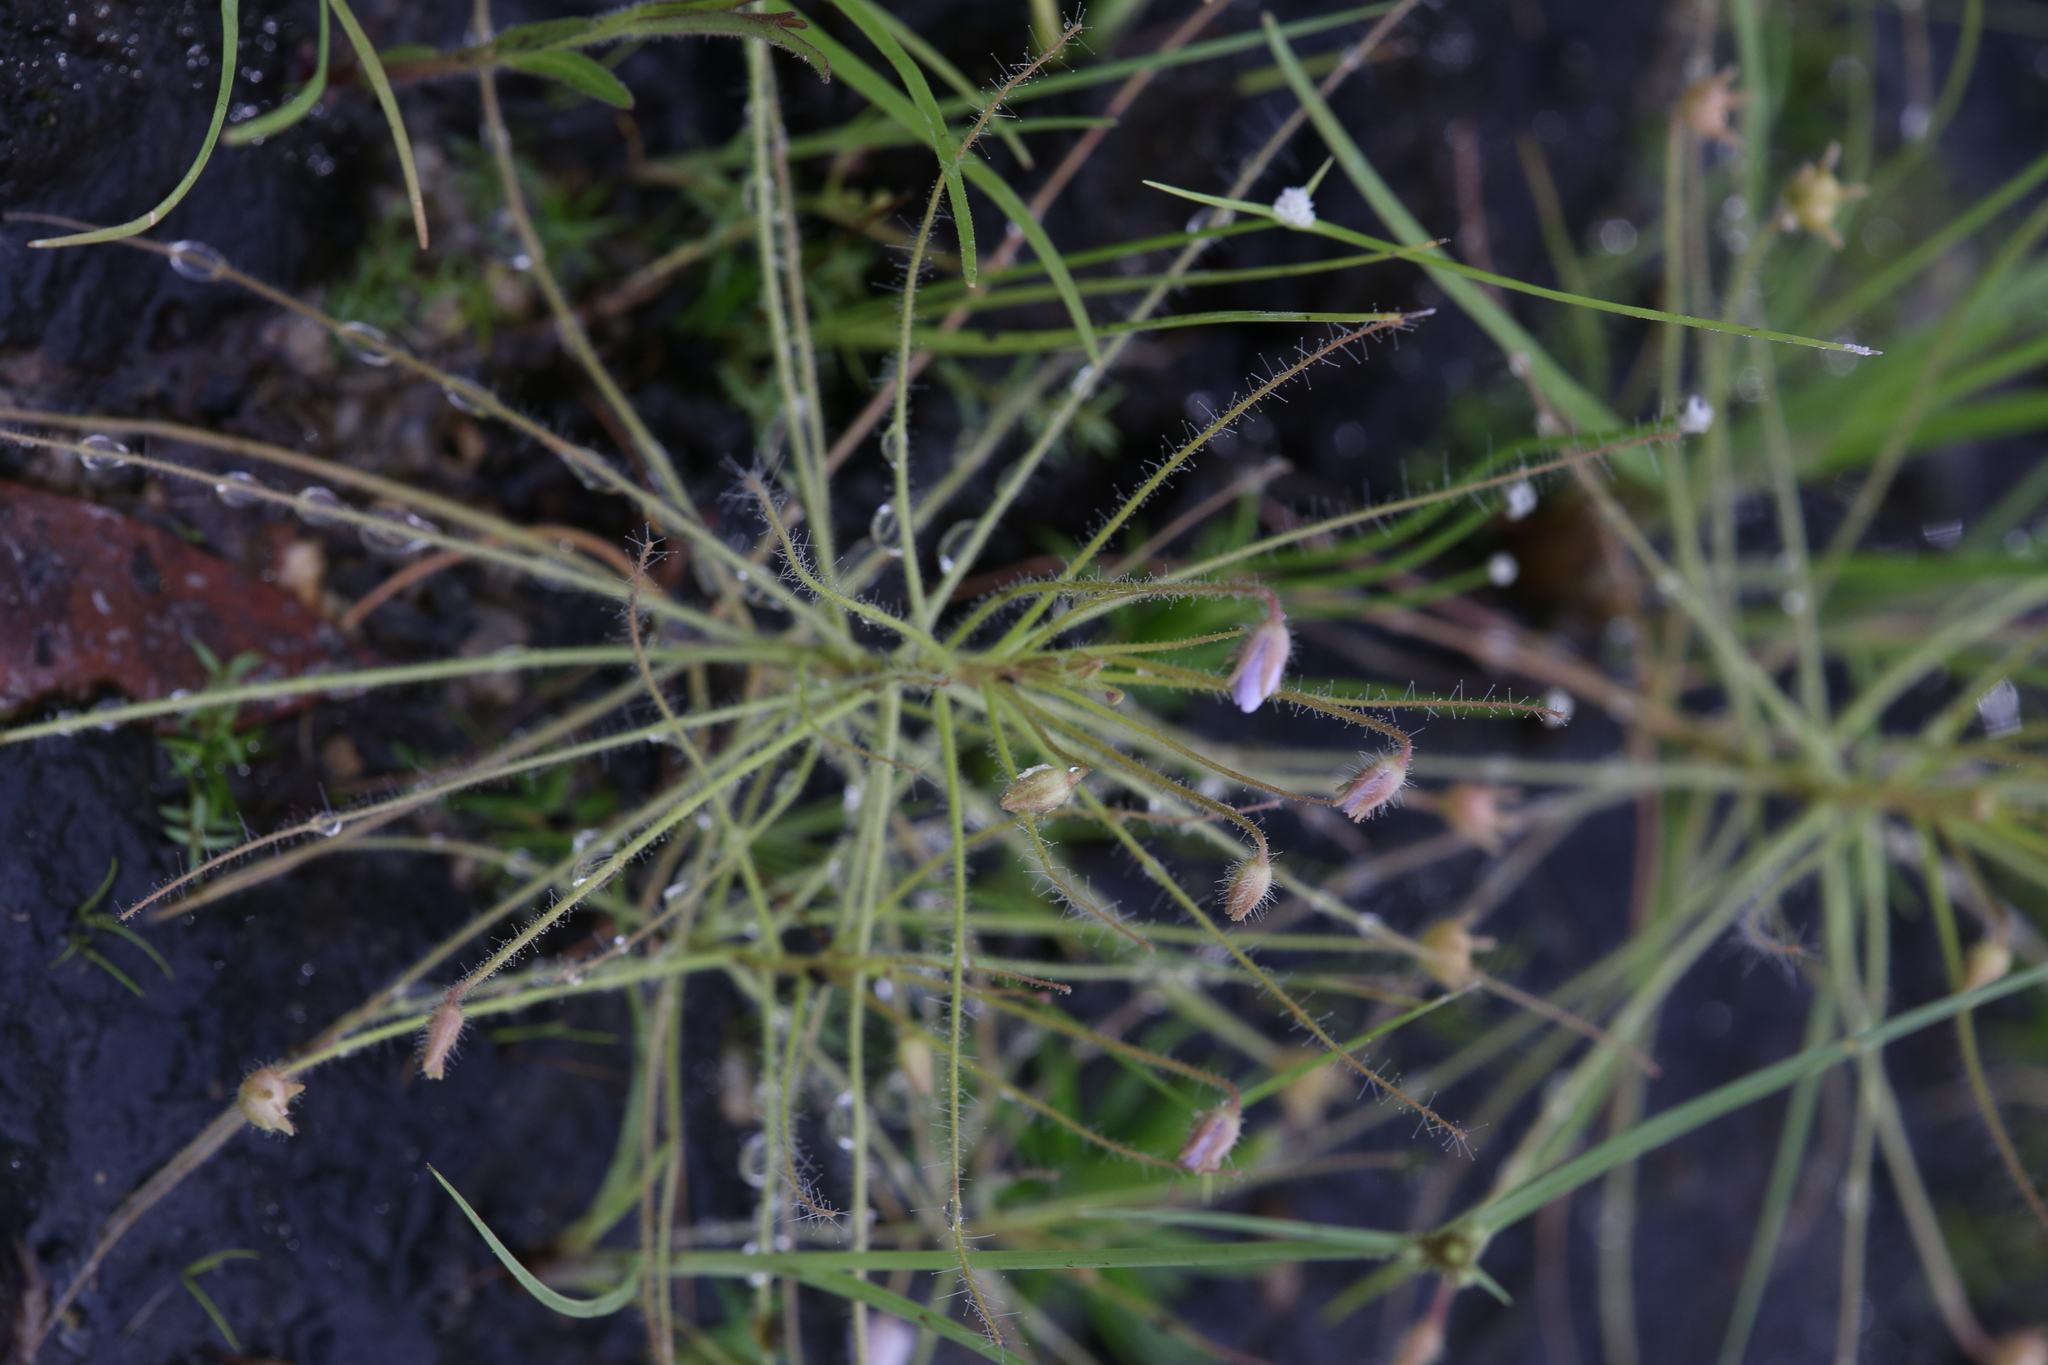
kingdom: Plantae
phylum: Tracheophyta
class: Magnoliopsida
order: Lamiales
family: Byblidaceae
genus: Byblis
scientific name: Byblis liniflora
